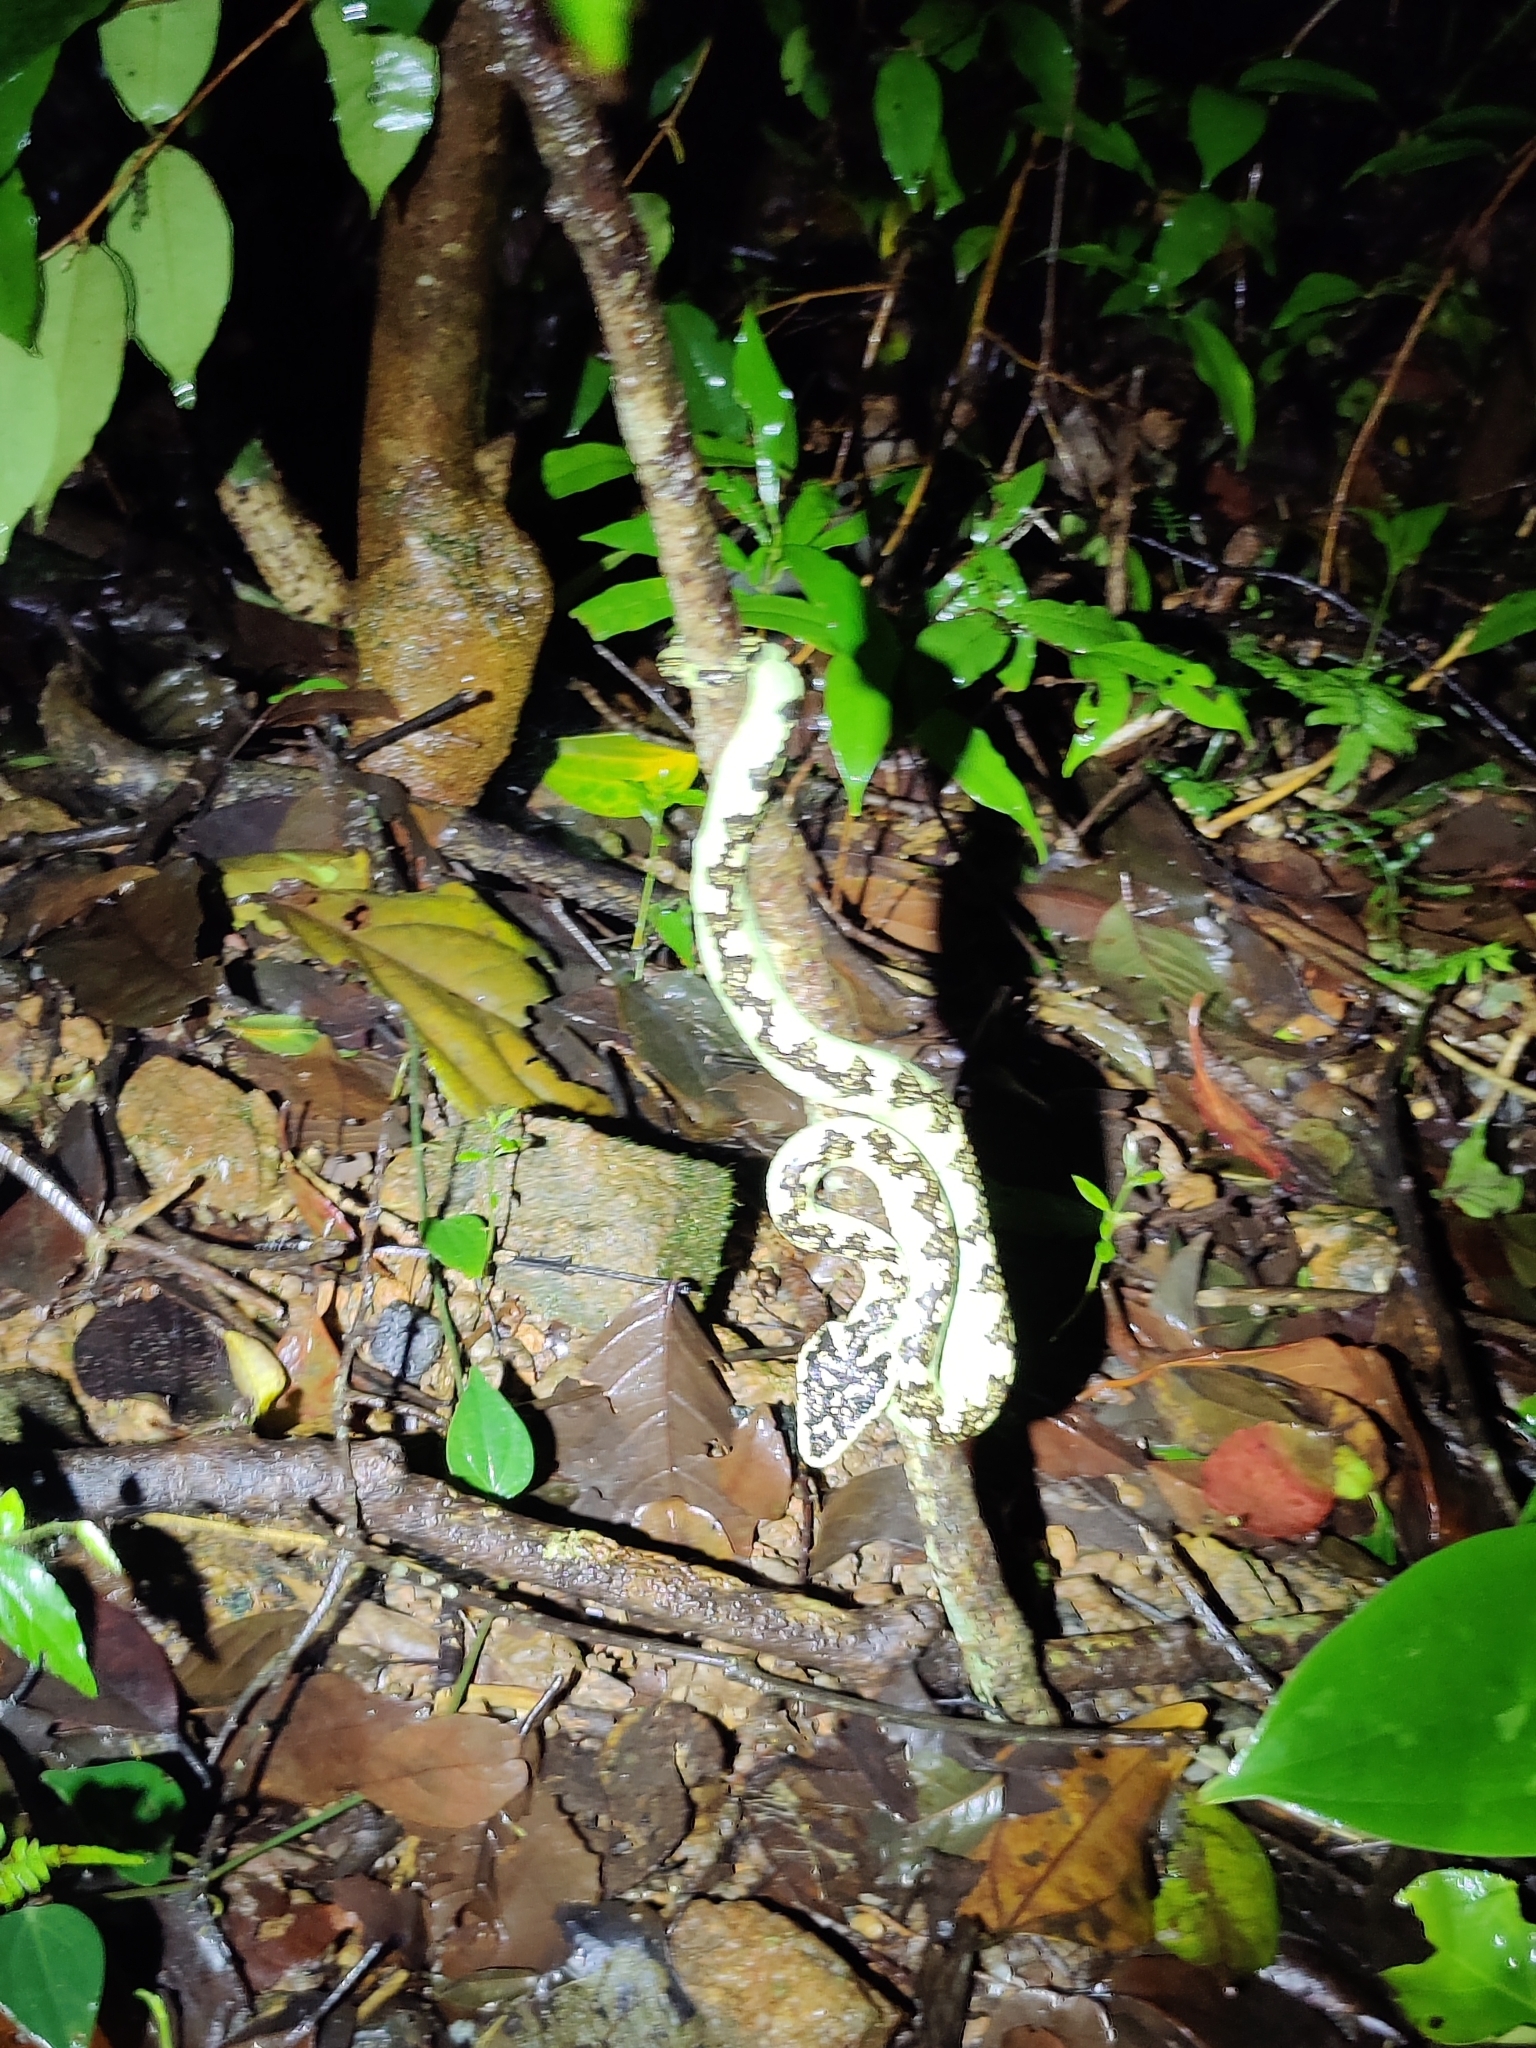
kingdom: Animalia
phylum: Chordata
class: Squamata
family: Viperidae
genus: Craspedocephalus
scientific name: Craspedocephalus malabaricus
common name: Malabarian pit viper
